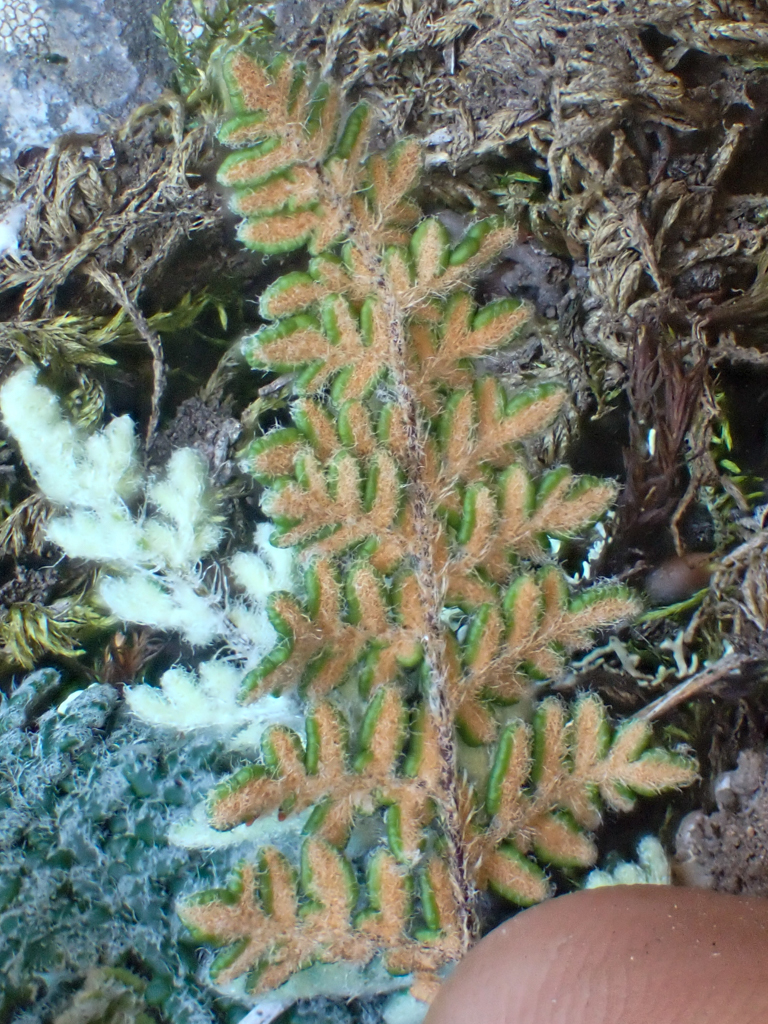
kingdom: Plantae
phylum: Tracheophyta
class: Polypodiopsida
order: Polypodiales
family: Pteridaceae
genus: Myriopteris
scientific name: Myriopteris gracillima
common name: Lace fern
